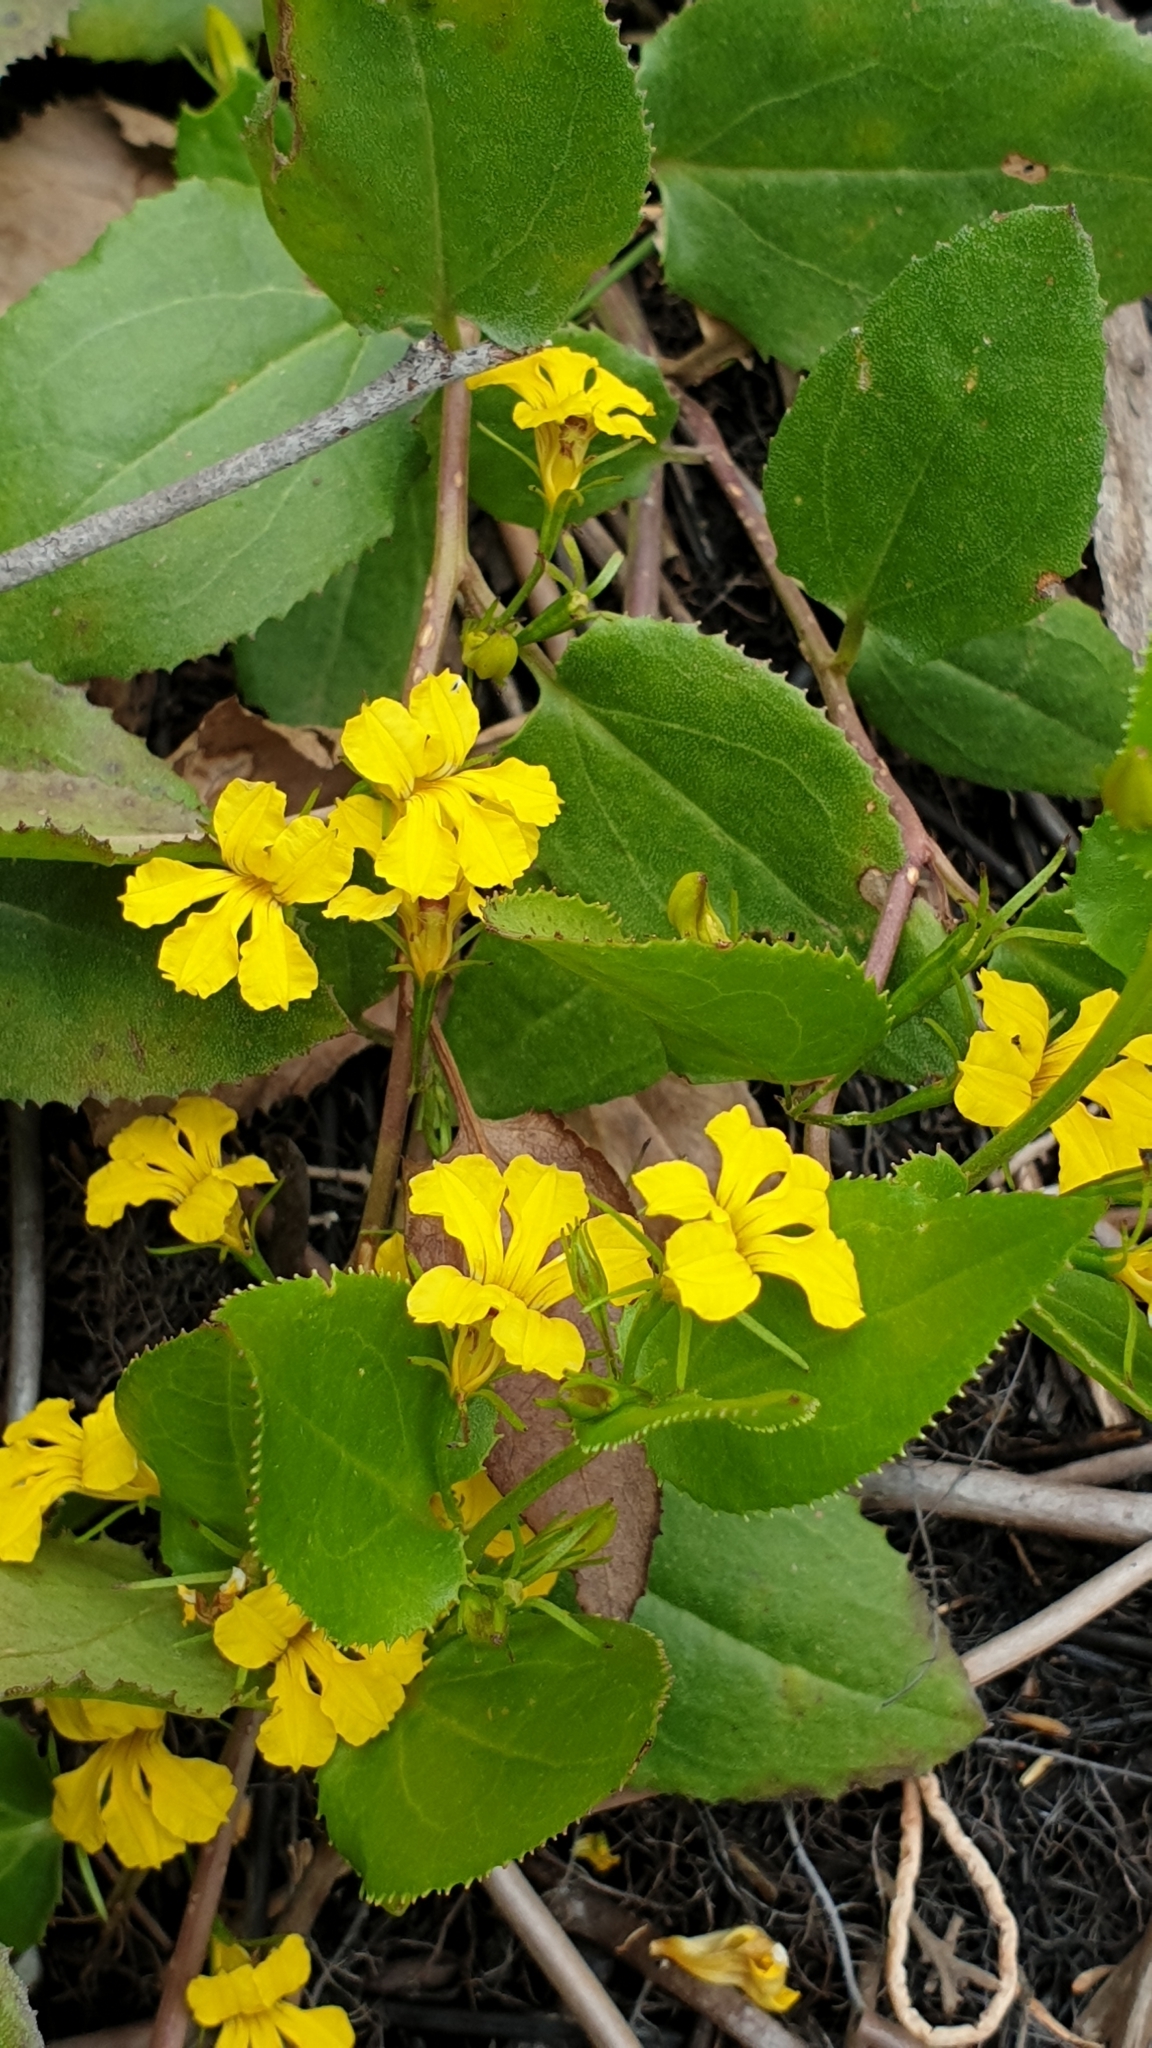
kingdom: Plantae
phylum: Tracheophyta
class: Magnoliopsida
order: Asterales
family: Goodeniaceae
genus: Goodenia
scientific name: Goodenia ovata
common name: Hop goodenia
